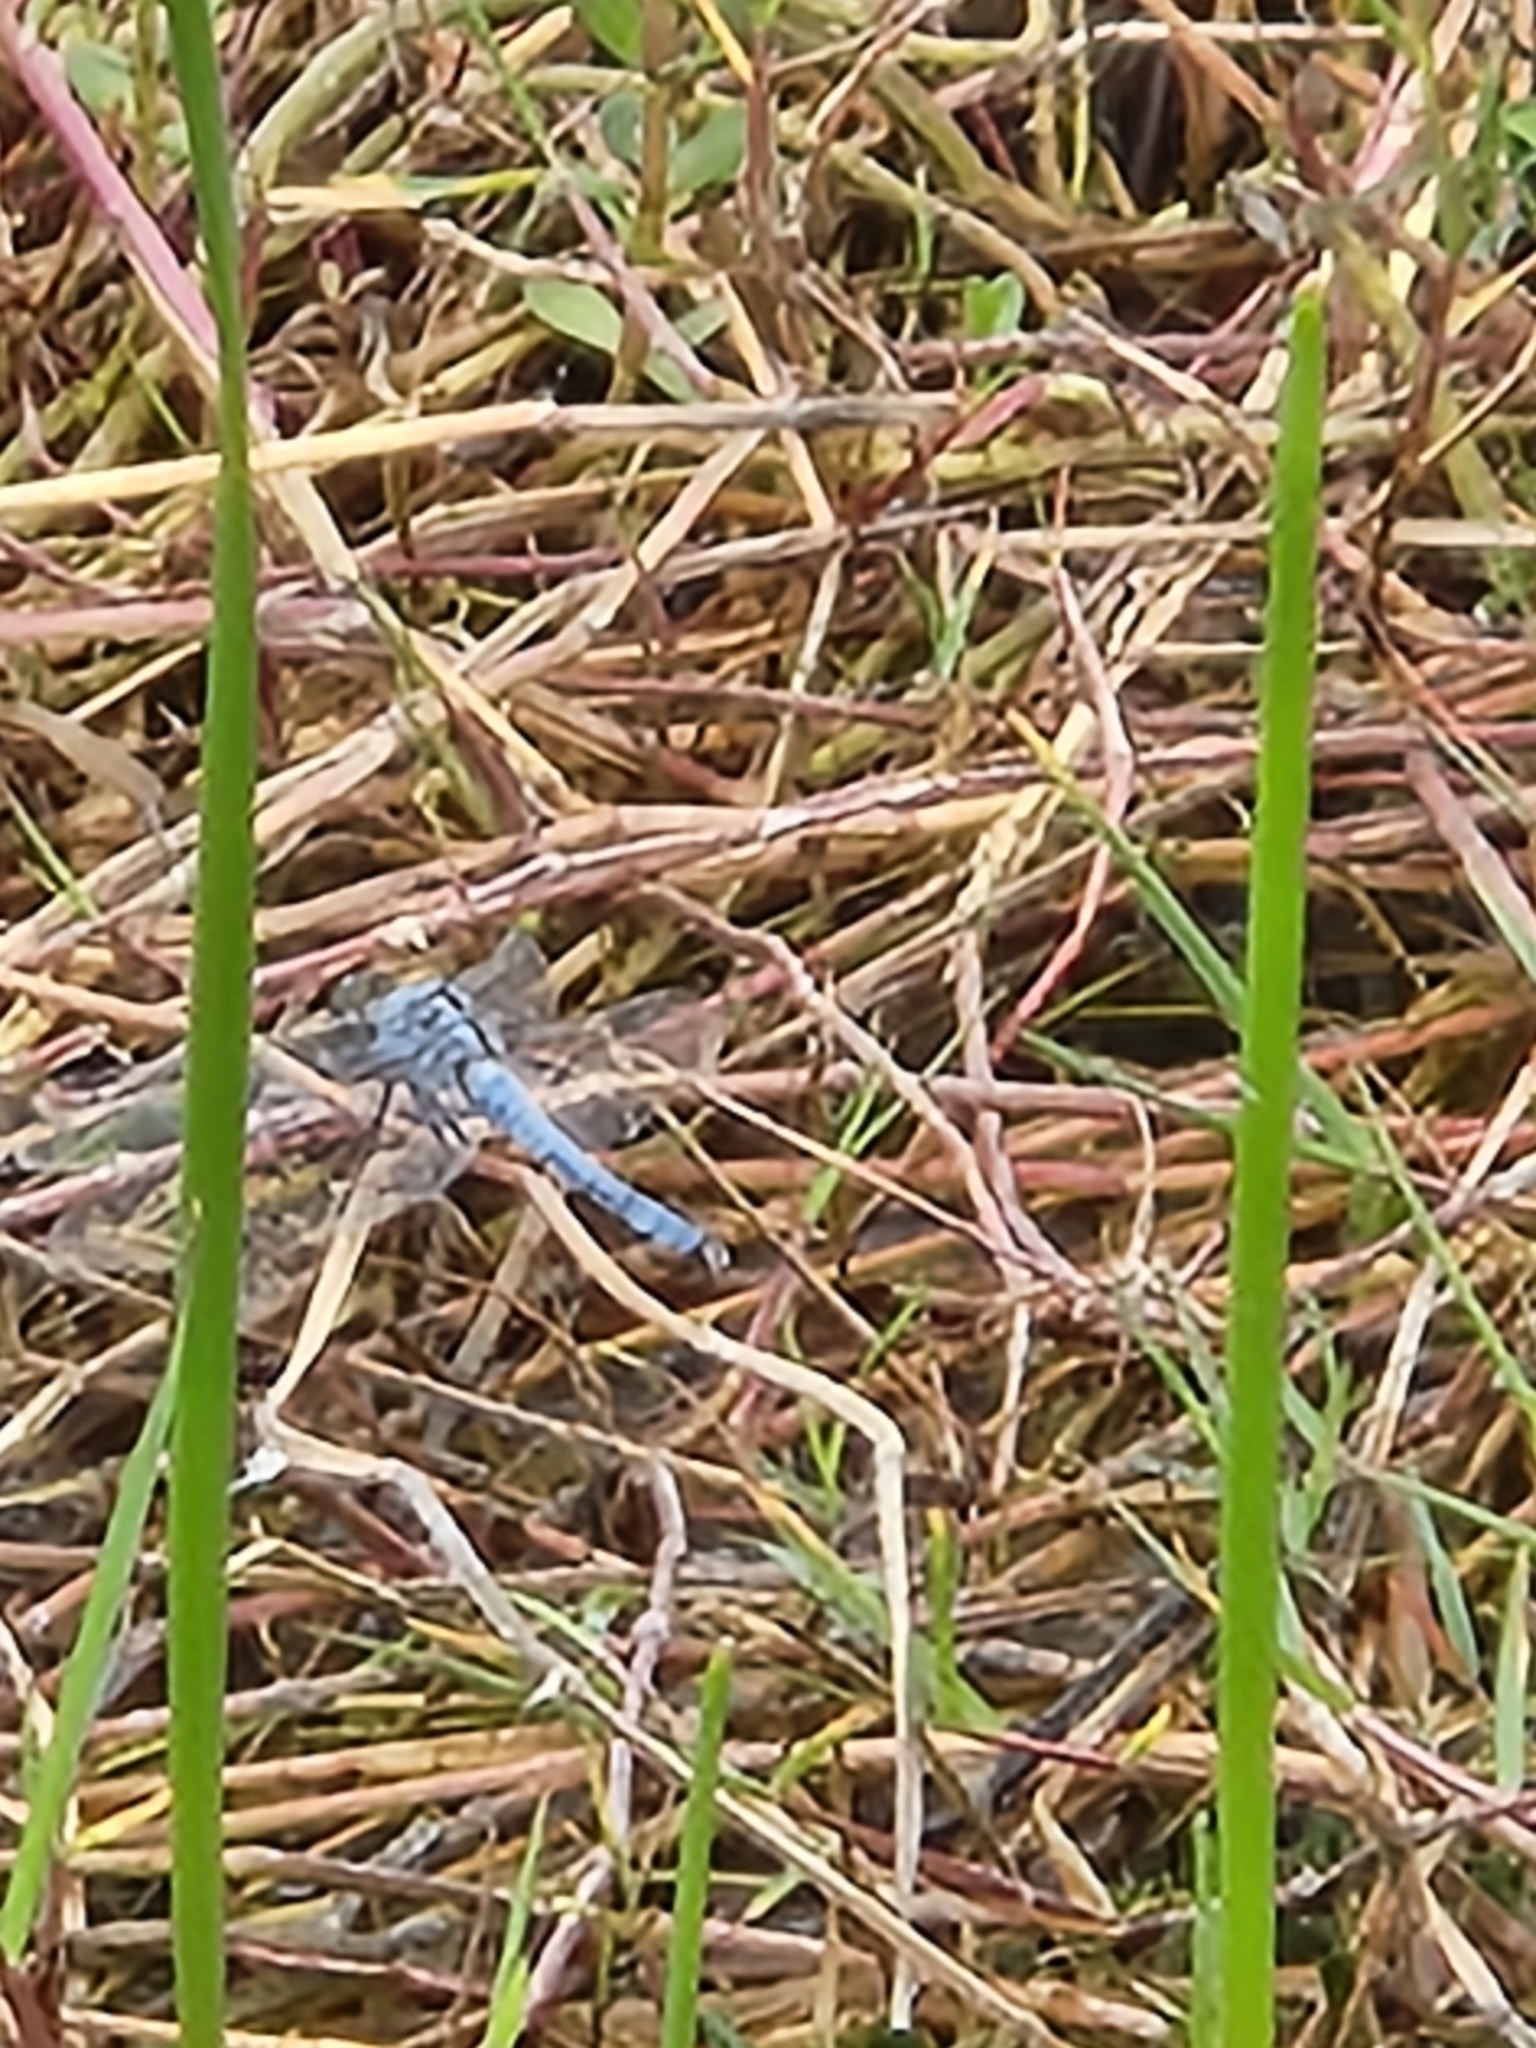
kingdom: Animalia
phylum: Arthropoda
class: Insecta
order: Odonata
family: Libellulidae
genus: Erythemis
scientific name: Erythemis simplicicollis
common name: Eastern pondhawk
